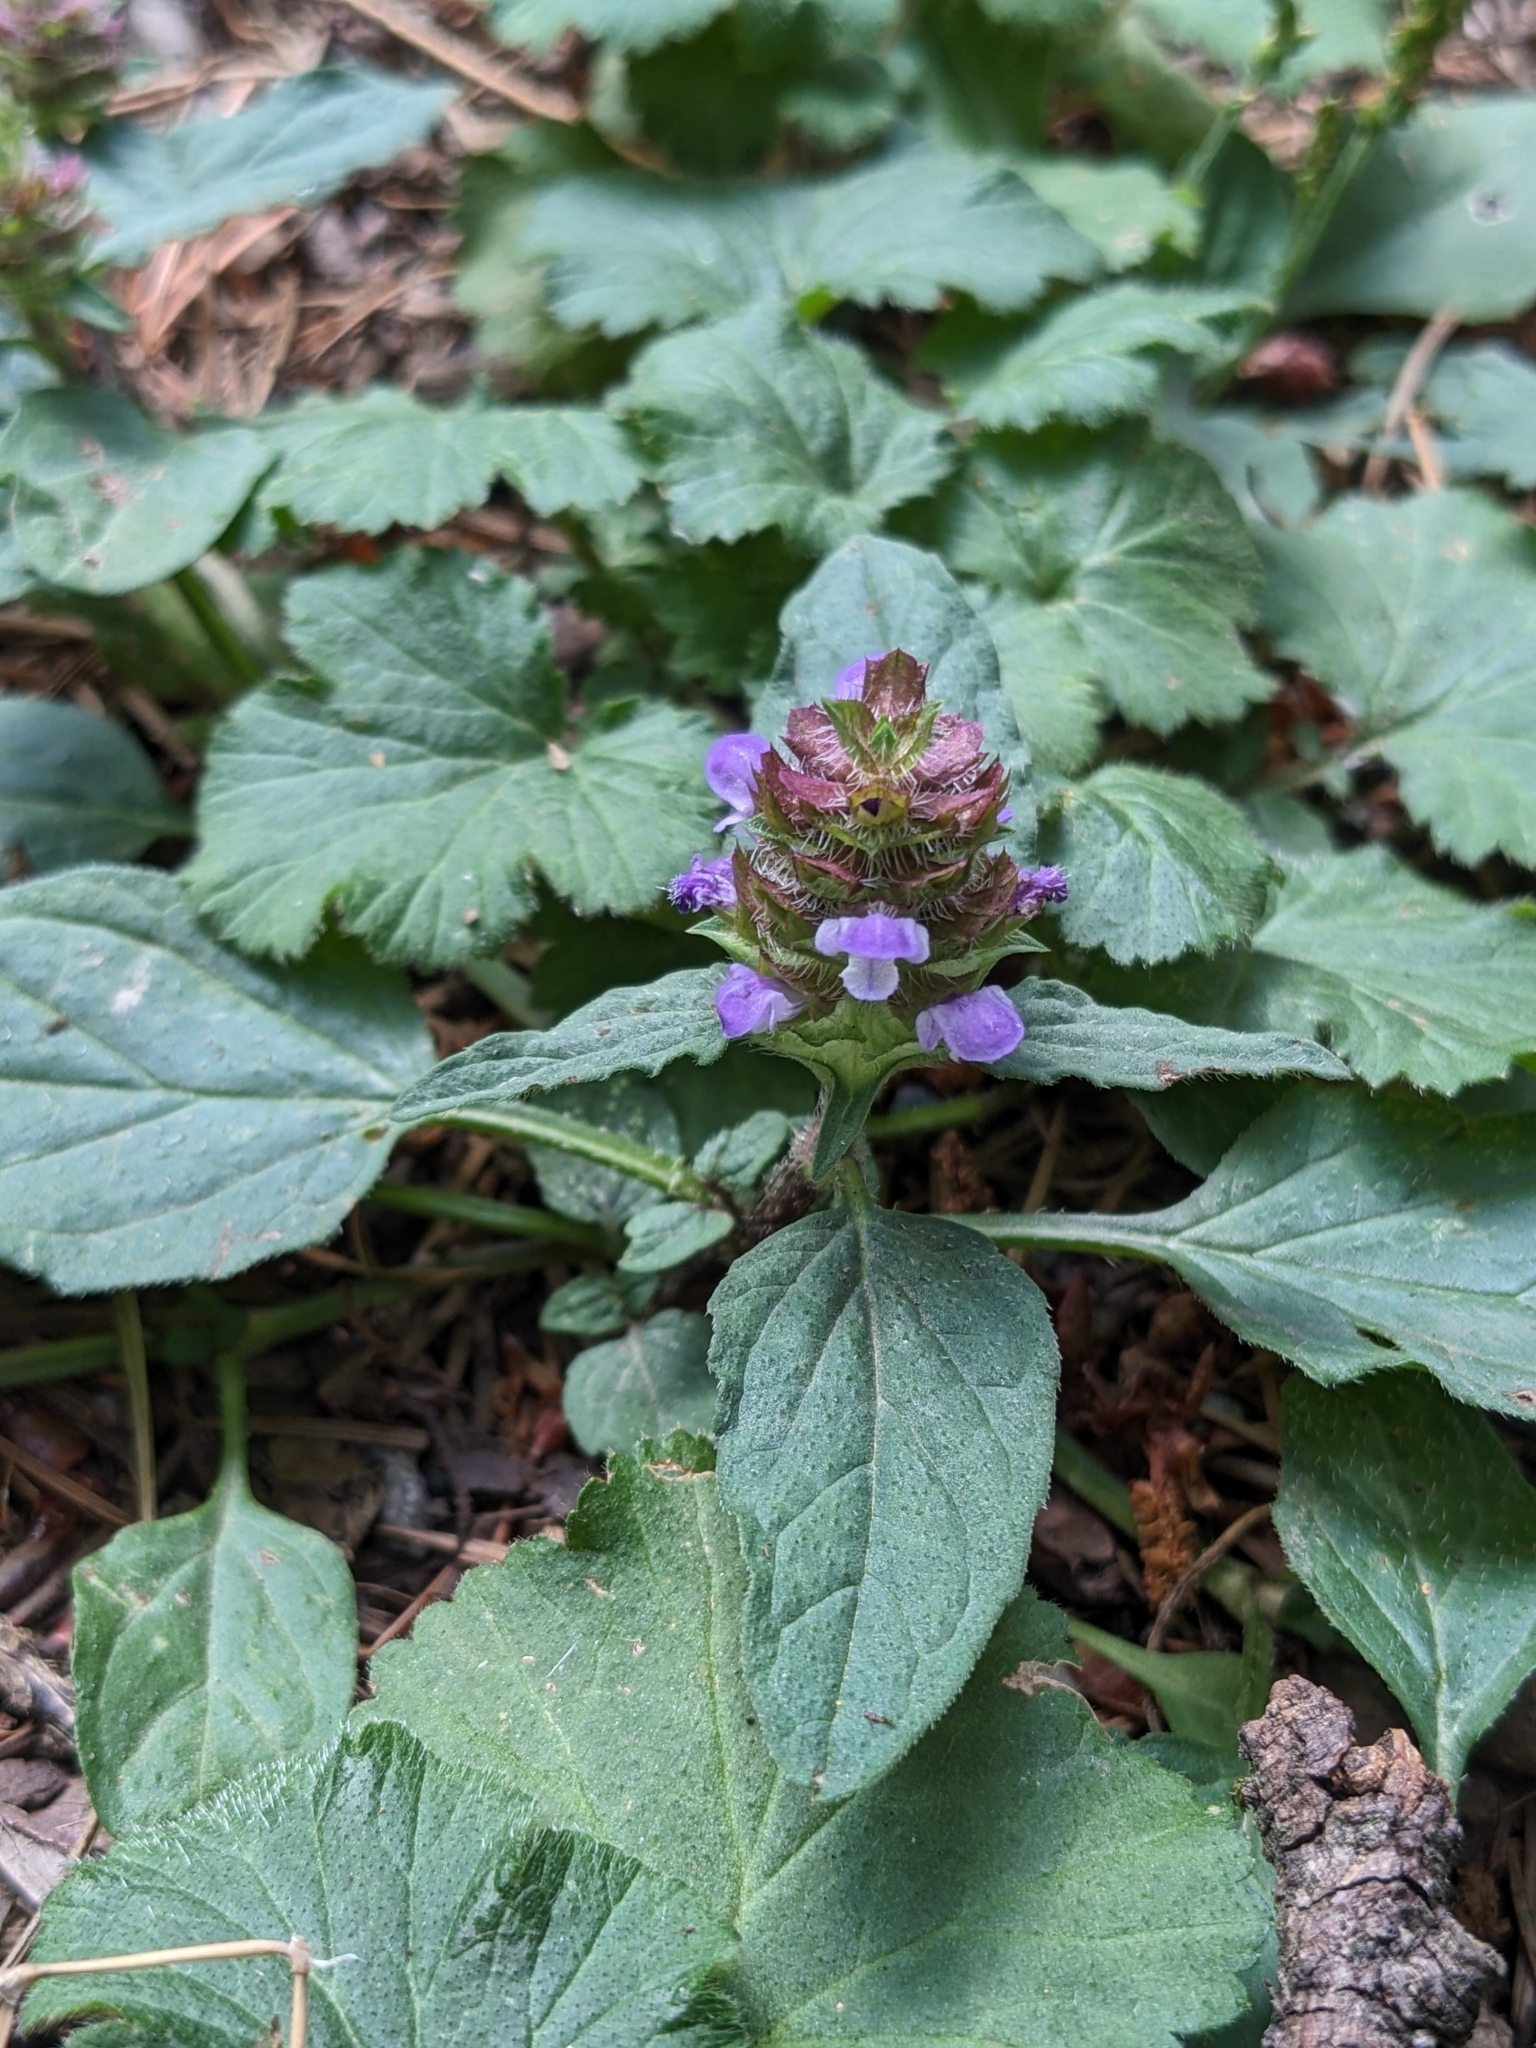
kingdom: Plantae
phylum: Tracheophyta
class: Magnoliopsida
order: Lamiales
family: Lamiaceae
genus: Prunella
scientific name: Prunella vulgaris
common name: Heal-all
